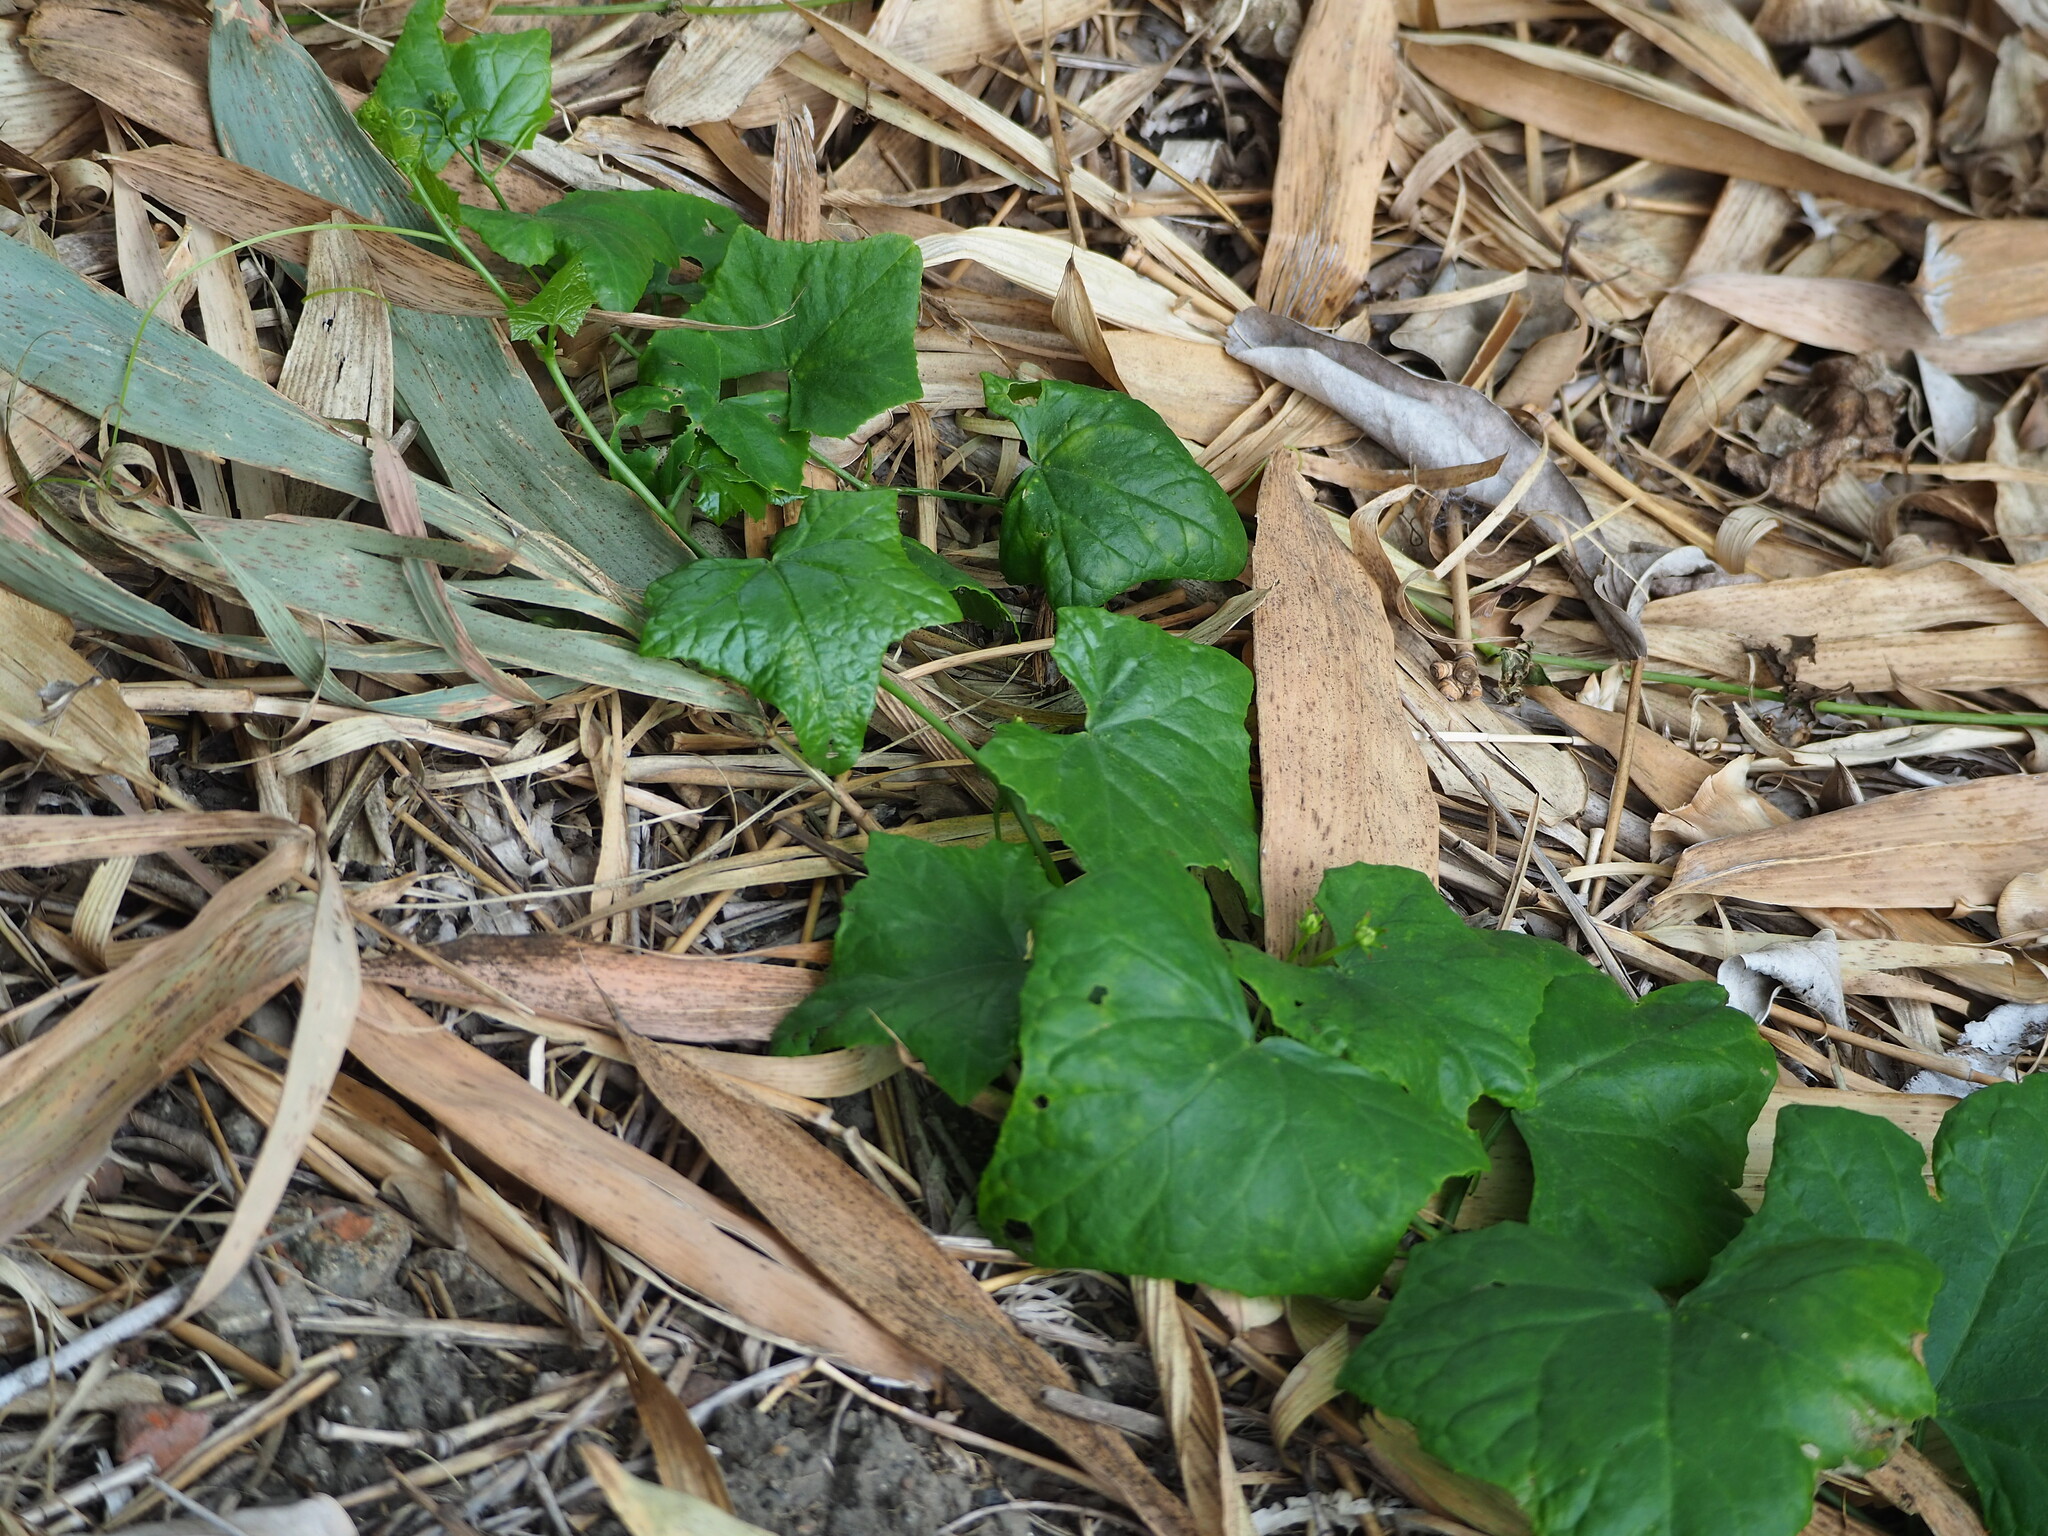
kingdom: Plantae
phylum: Tracheophyta
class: Magnoliopsida
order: Cucurbitales
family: Cucurbitaceae
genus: Coccinia
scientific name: Coccinia grandis
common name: Ivy gourd
